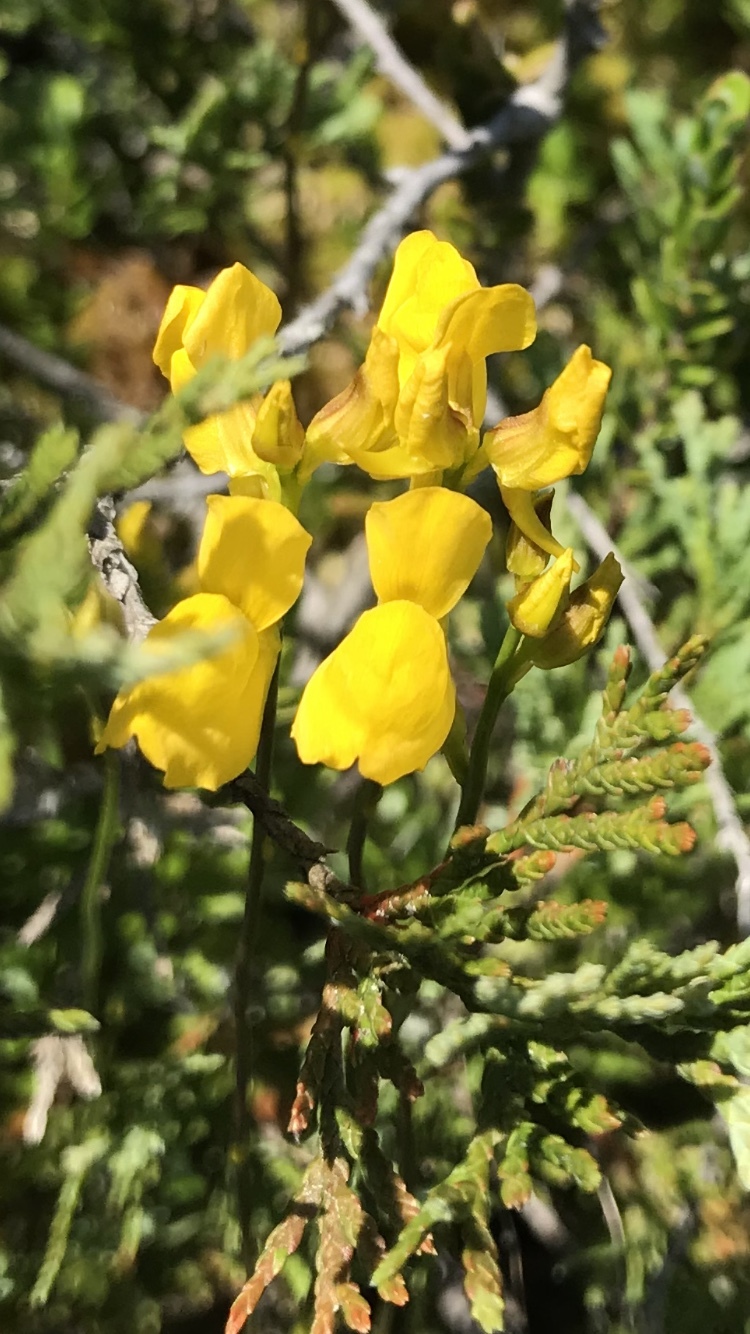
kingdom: Plantae
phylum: Tracheophyta
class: Magnoliopsida
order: Lamiales
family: Lentibulariaceae
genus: Utricularia
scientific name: Utricularia cornuta
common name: Horned bladderwort
